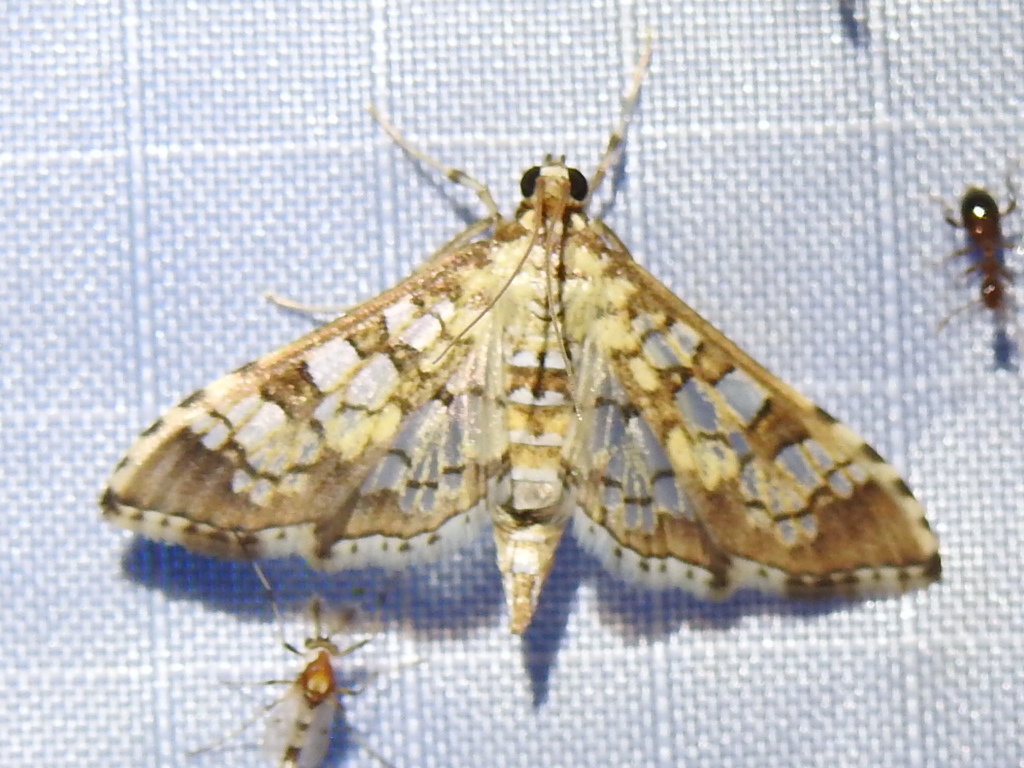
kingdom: Animalia
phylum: Arthropoda
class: Insecta
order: Lepidoptera
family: Crambidae
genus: Samea
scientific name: Samea ecclesialis
